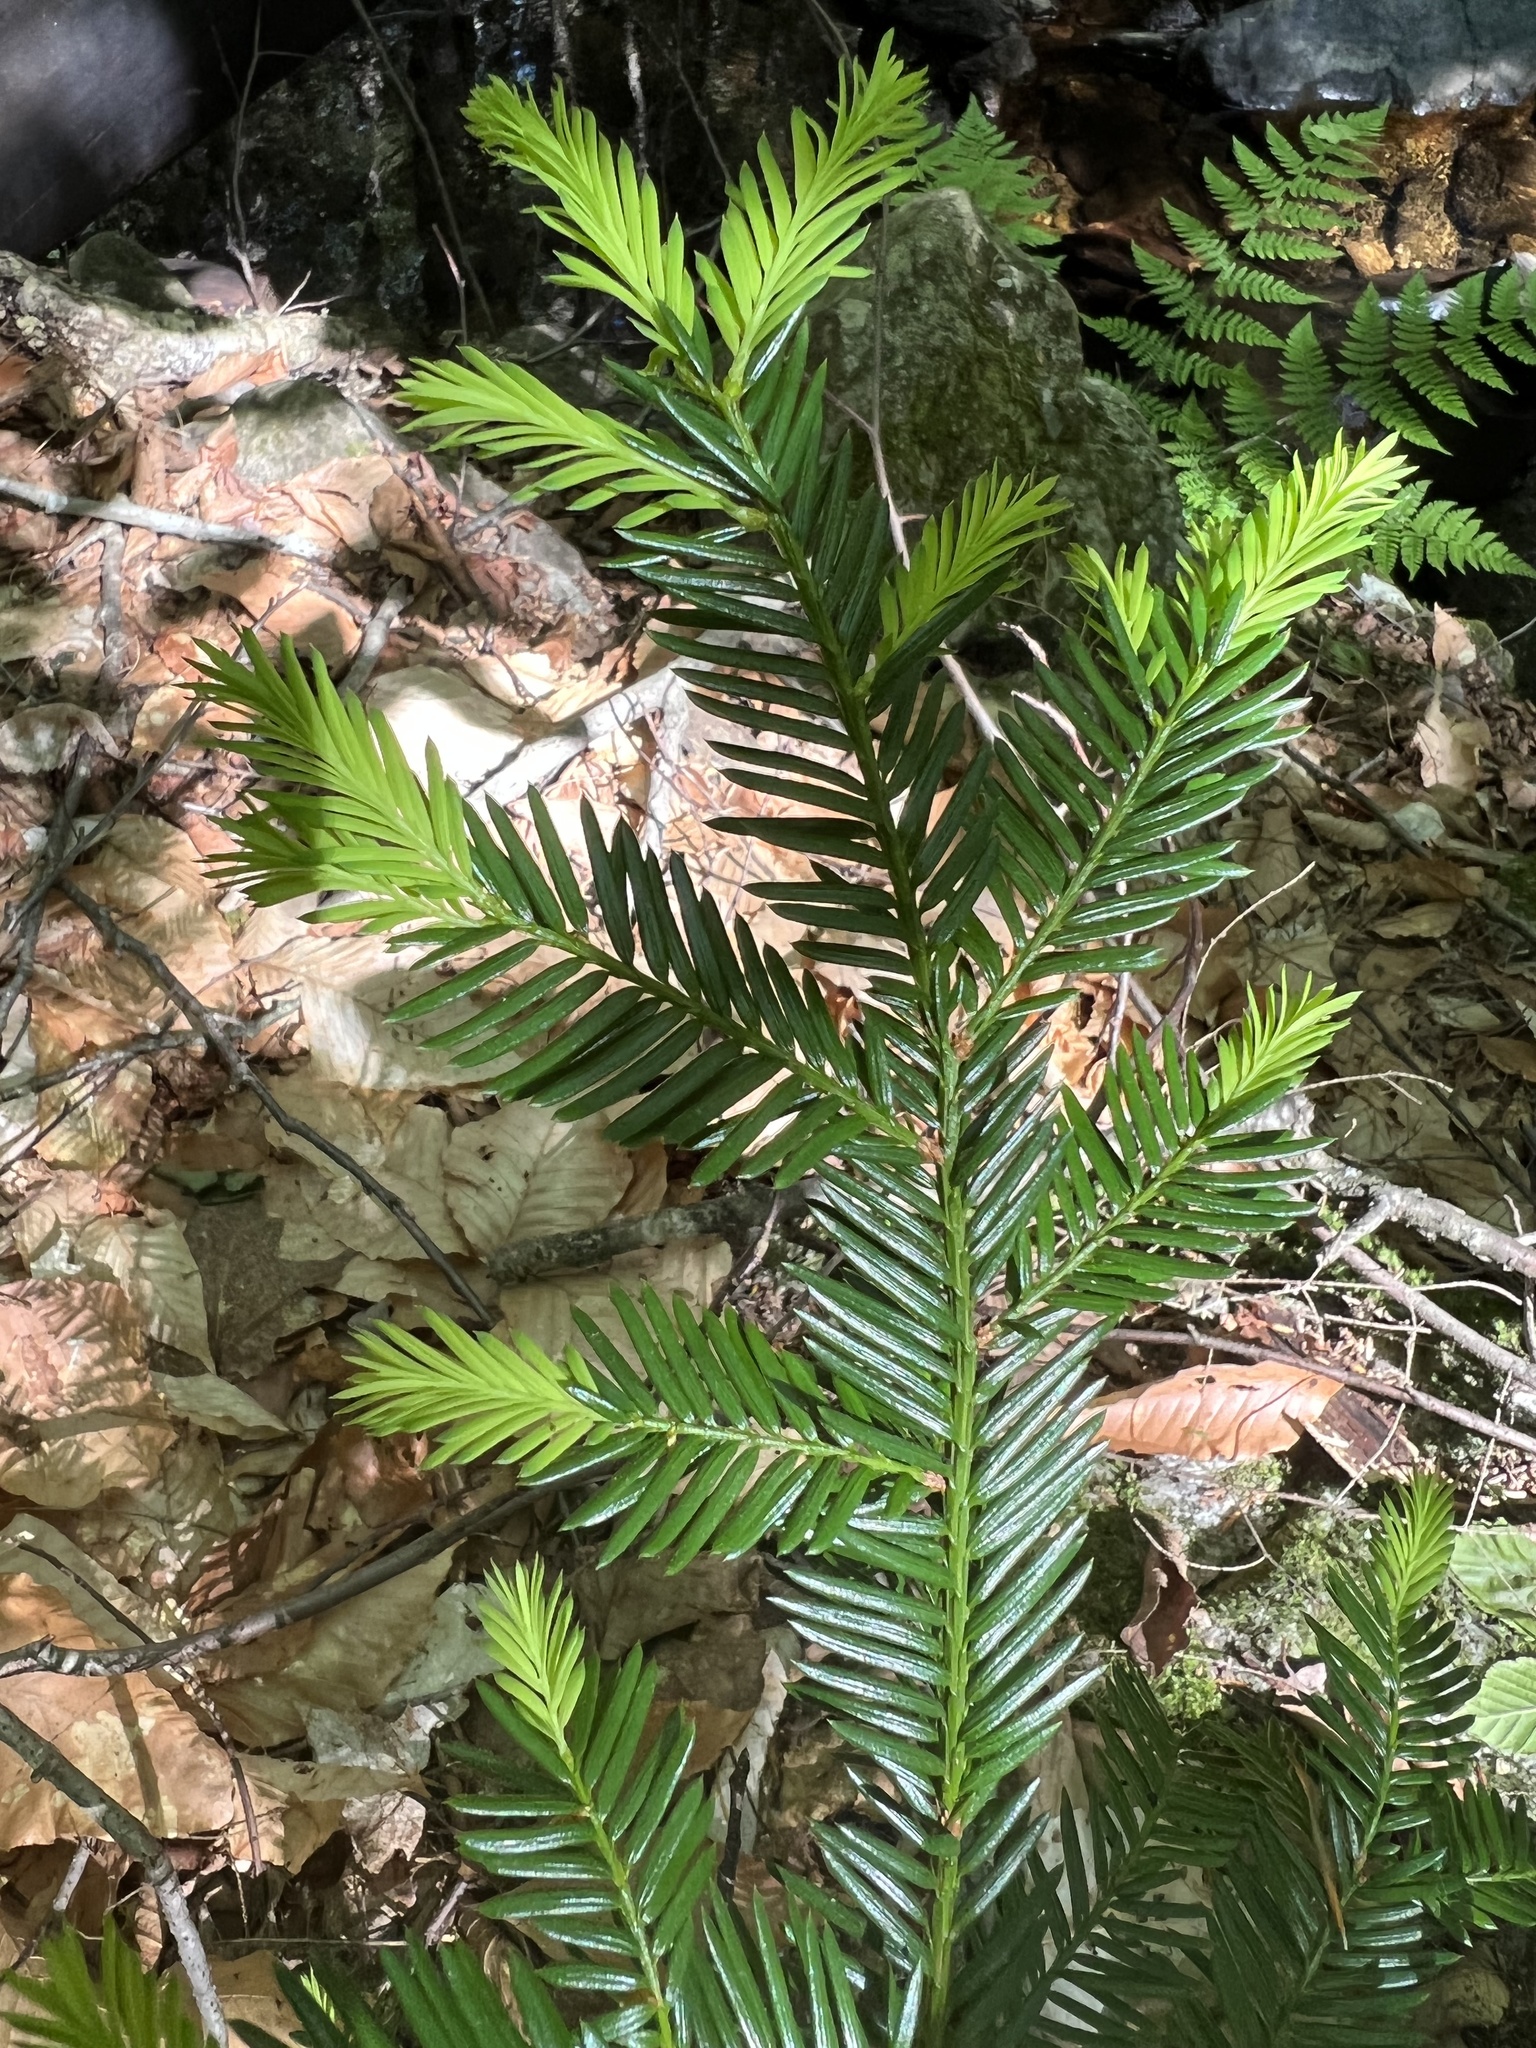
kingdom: Plantae
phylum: Tracheophyta
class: Pinopsida
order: Pinales
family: Taxaceae
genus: Taxus
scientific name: Taxus canadensis
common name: American yew
